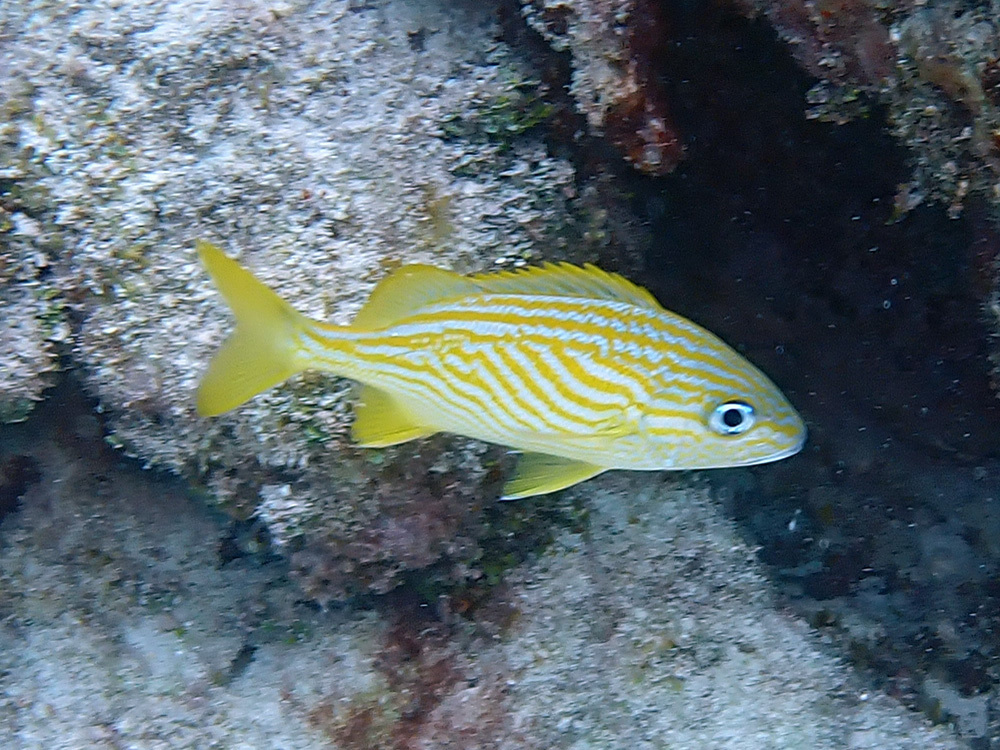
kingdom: Animalia
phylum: Chordata
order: Perciformes
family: Haemulidae
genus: Haemulon
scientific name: Haemulon flavolineatum
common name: French grunt
